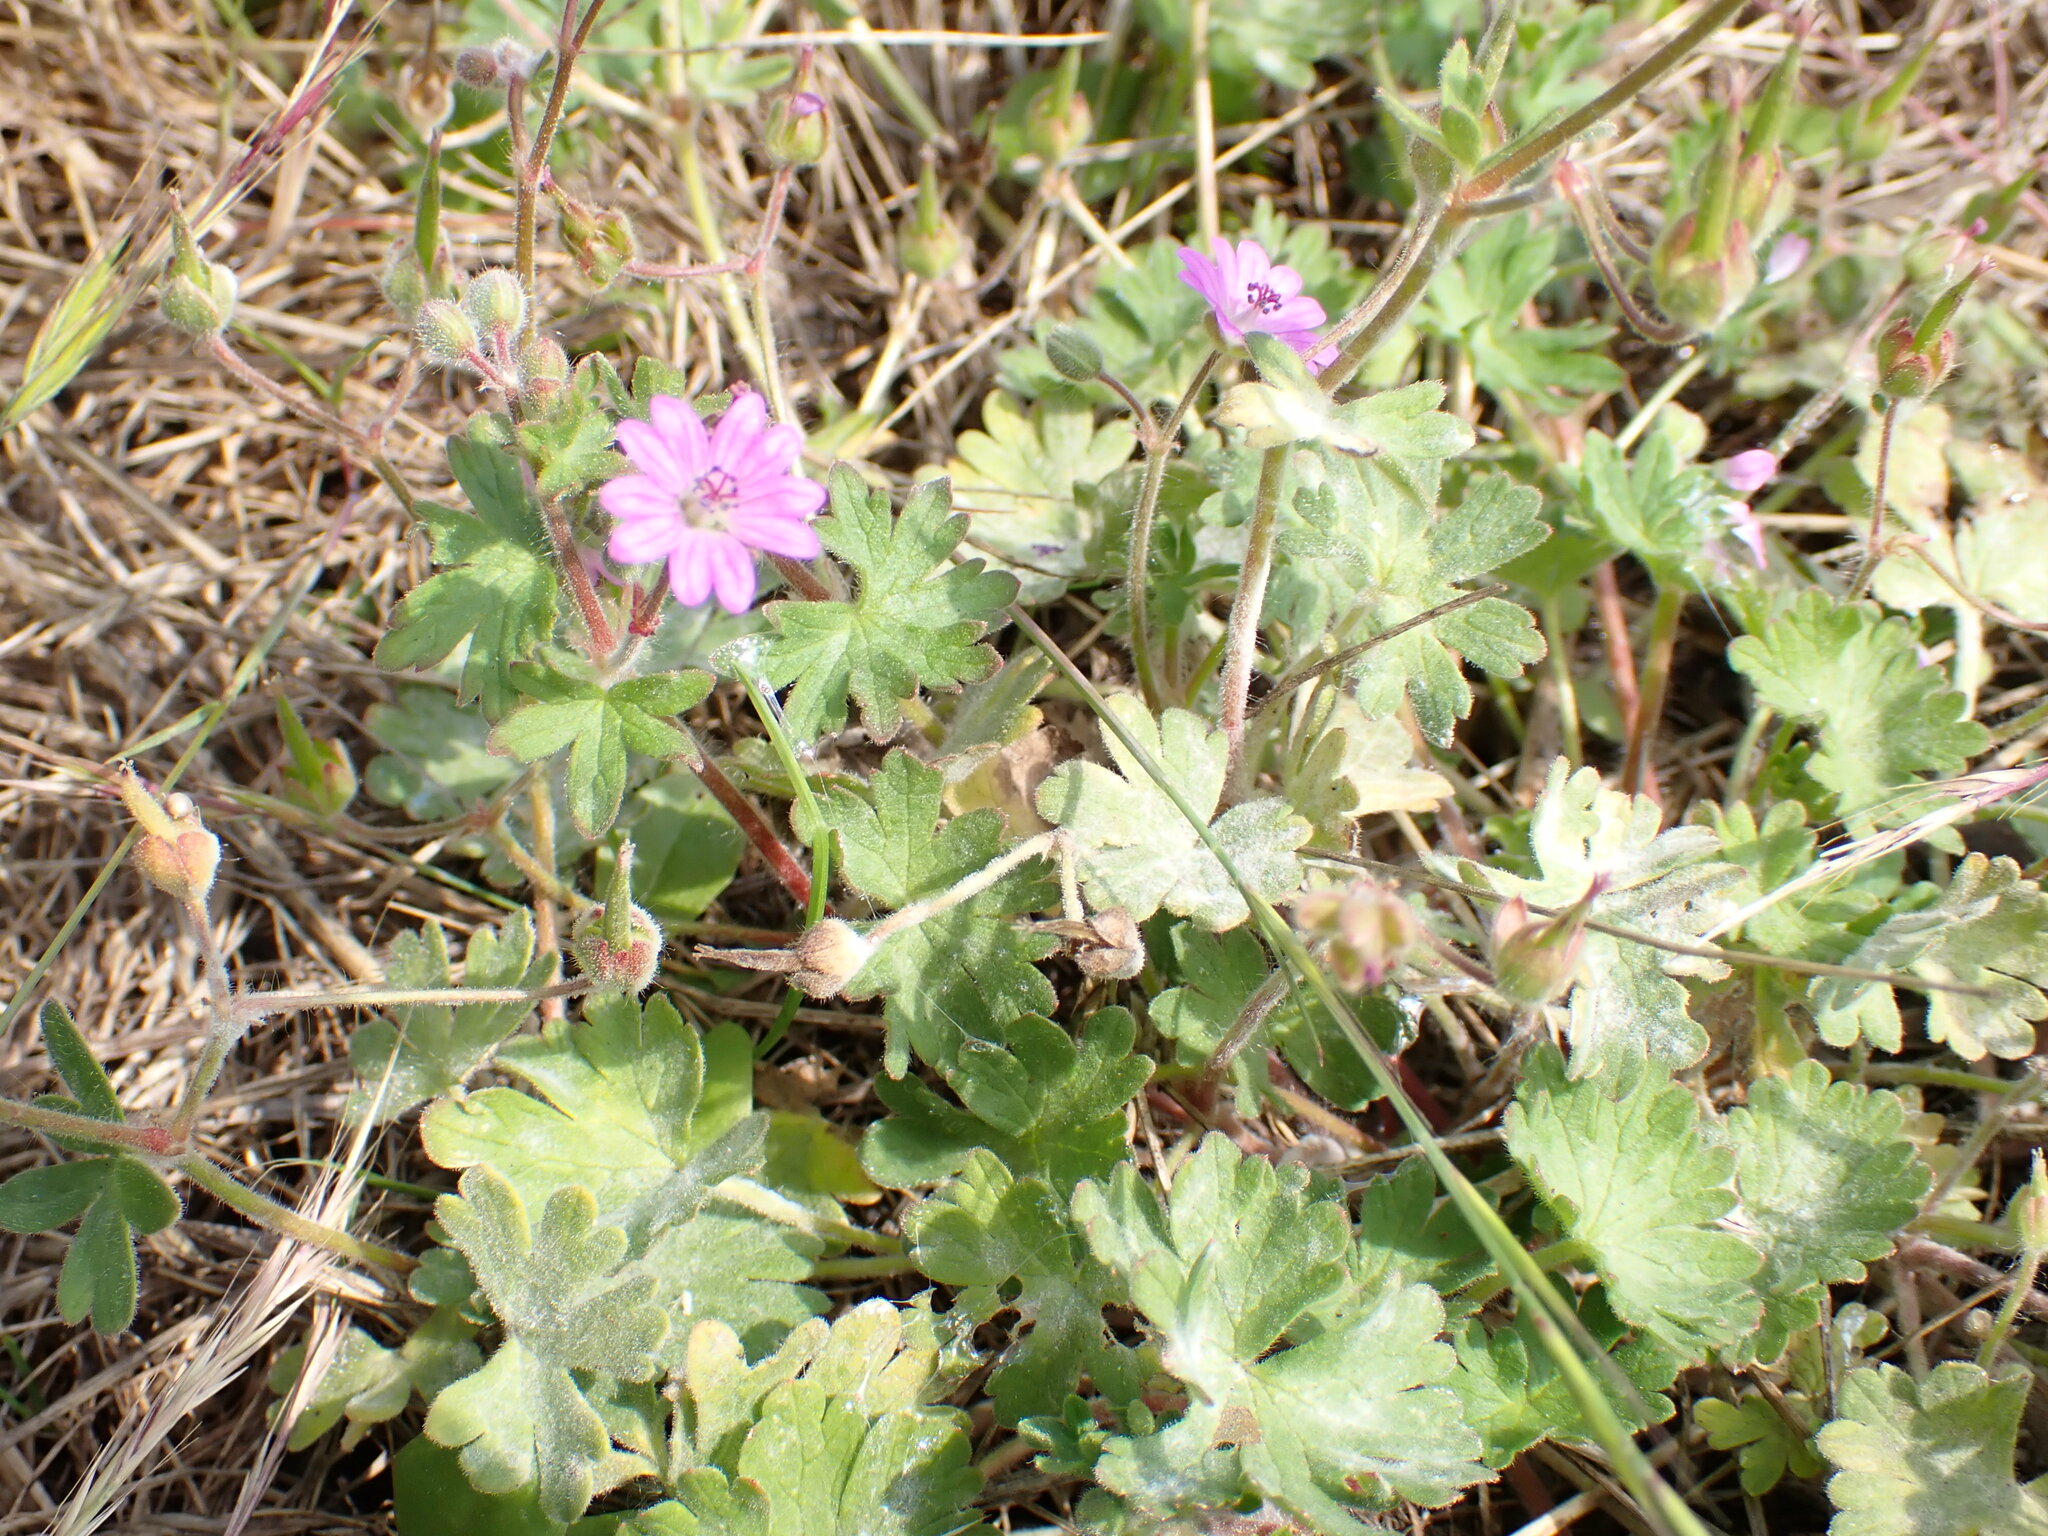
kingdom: Plantae
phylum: Tracheophyta
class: Magnoliopsida
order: Geraniales
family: Geraniaceae
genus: Geranium
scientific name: Geranium molle
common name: Dove's-foot crane's-bill
